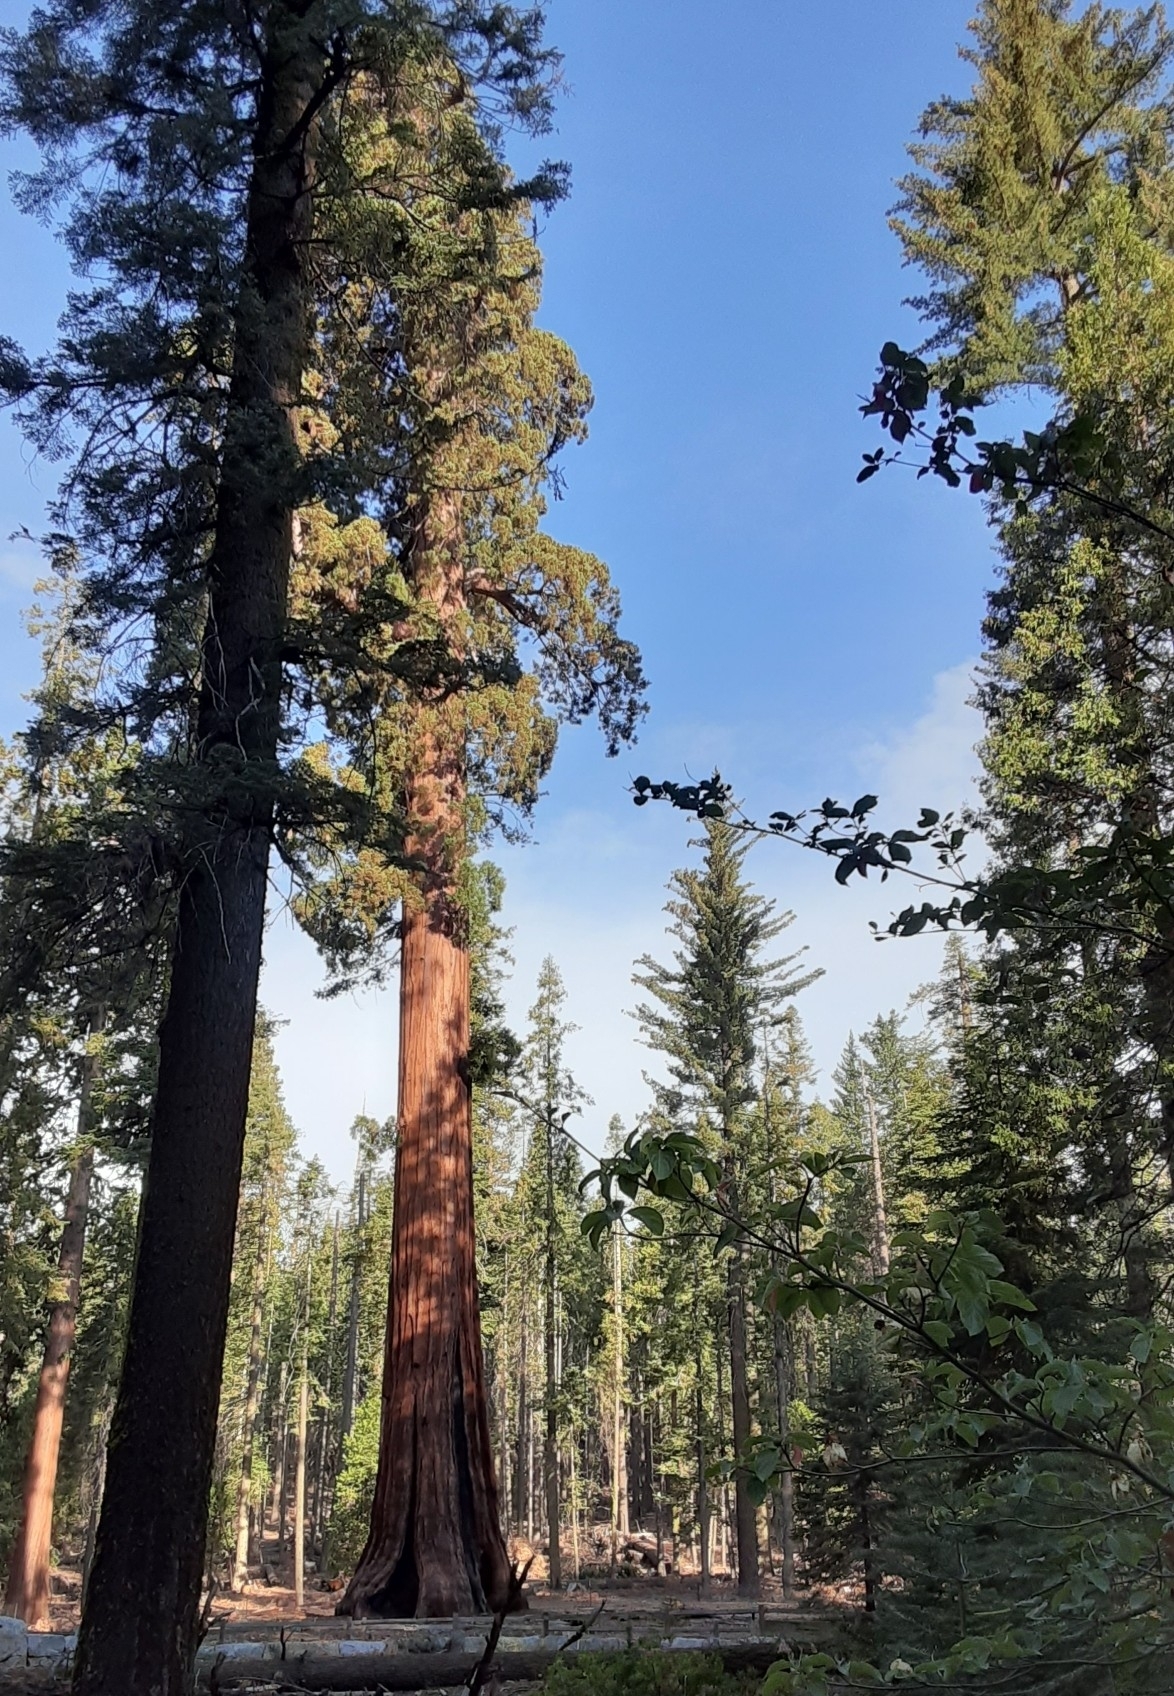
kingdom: Plantae
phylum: Tracheophyta
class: Pinopsida
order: Pinales
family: Cupressaceae
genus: Sequoiadendron
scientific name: Sequoiadendron giganteum
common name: Wellingtonia
